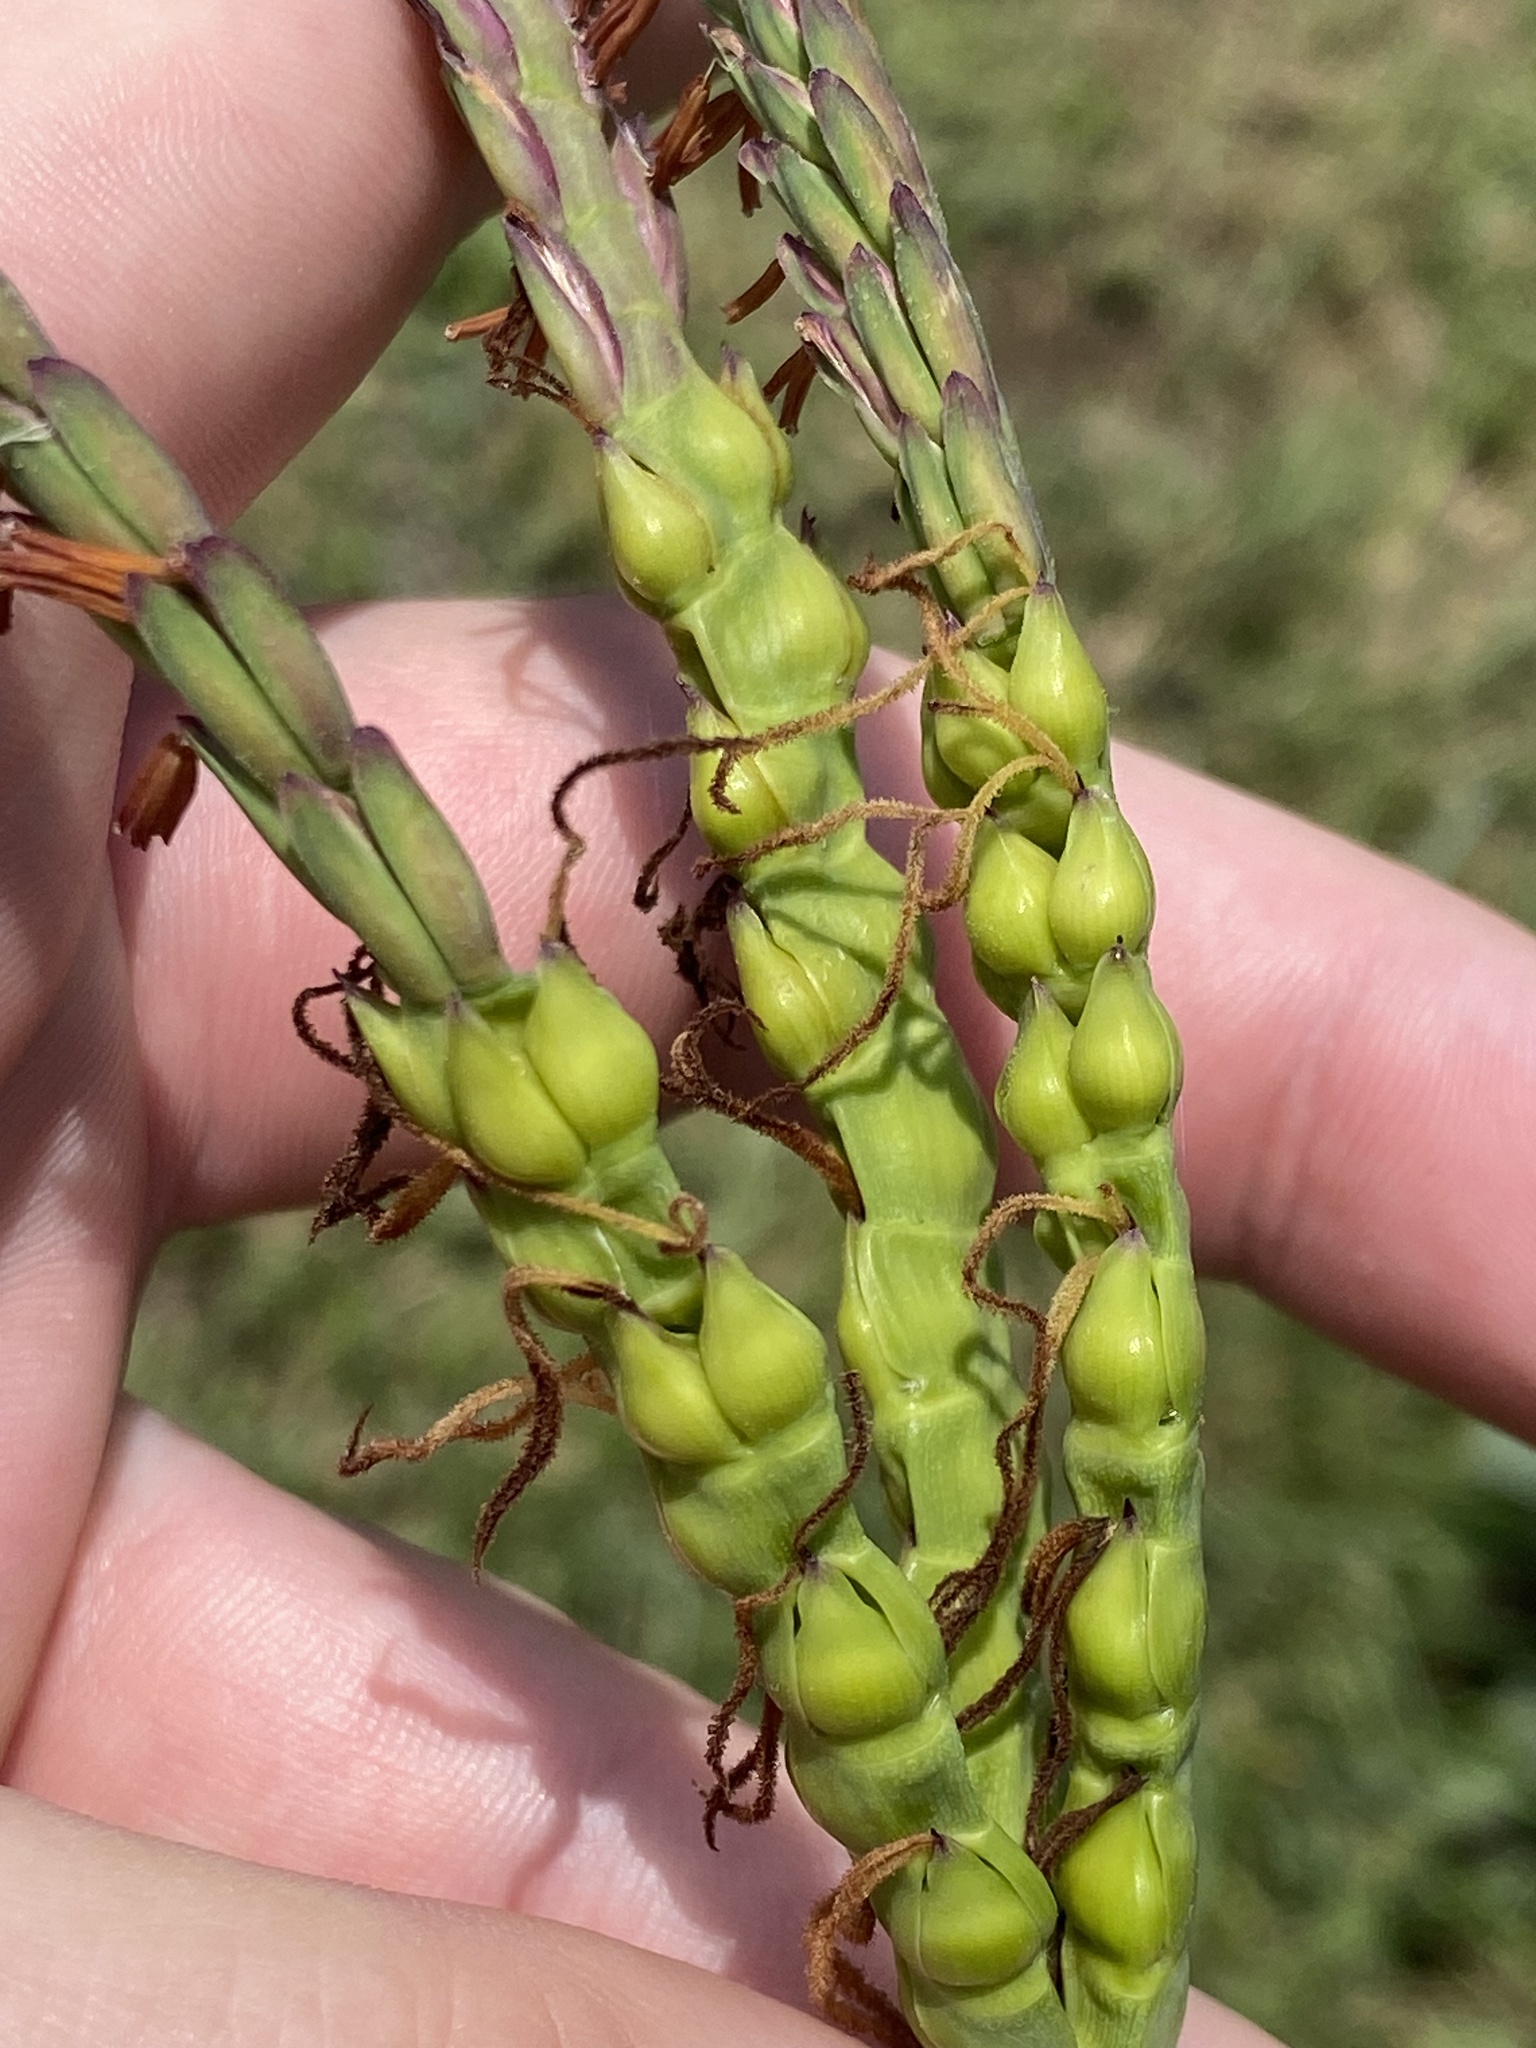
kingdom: Plantae
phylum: Tracheophyta
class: Liliopsida
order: Poales
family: Poaceae
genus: Tripsacum
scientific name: Tripsacum dactyloides
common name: Buffalo-grass
